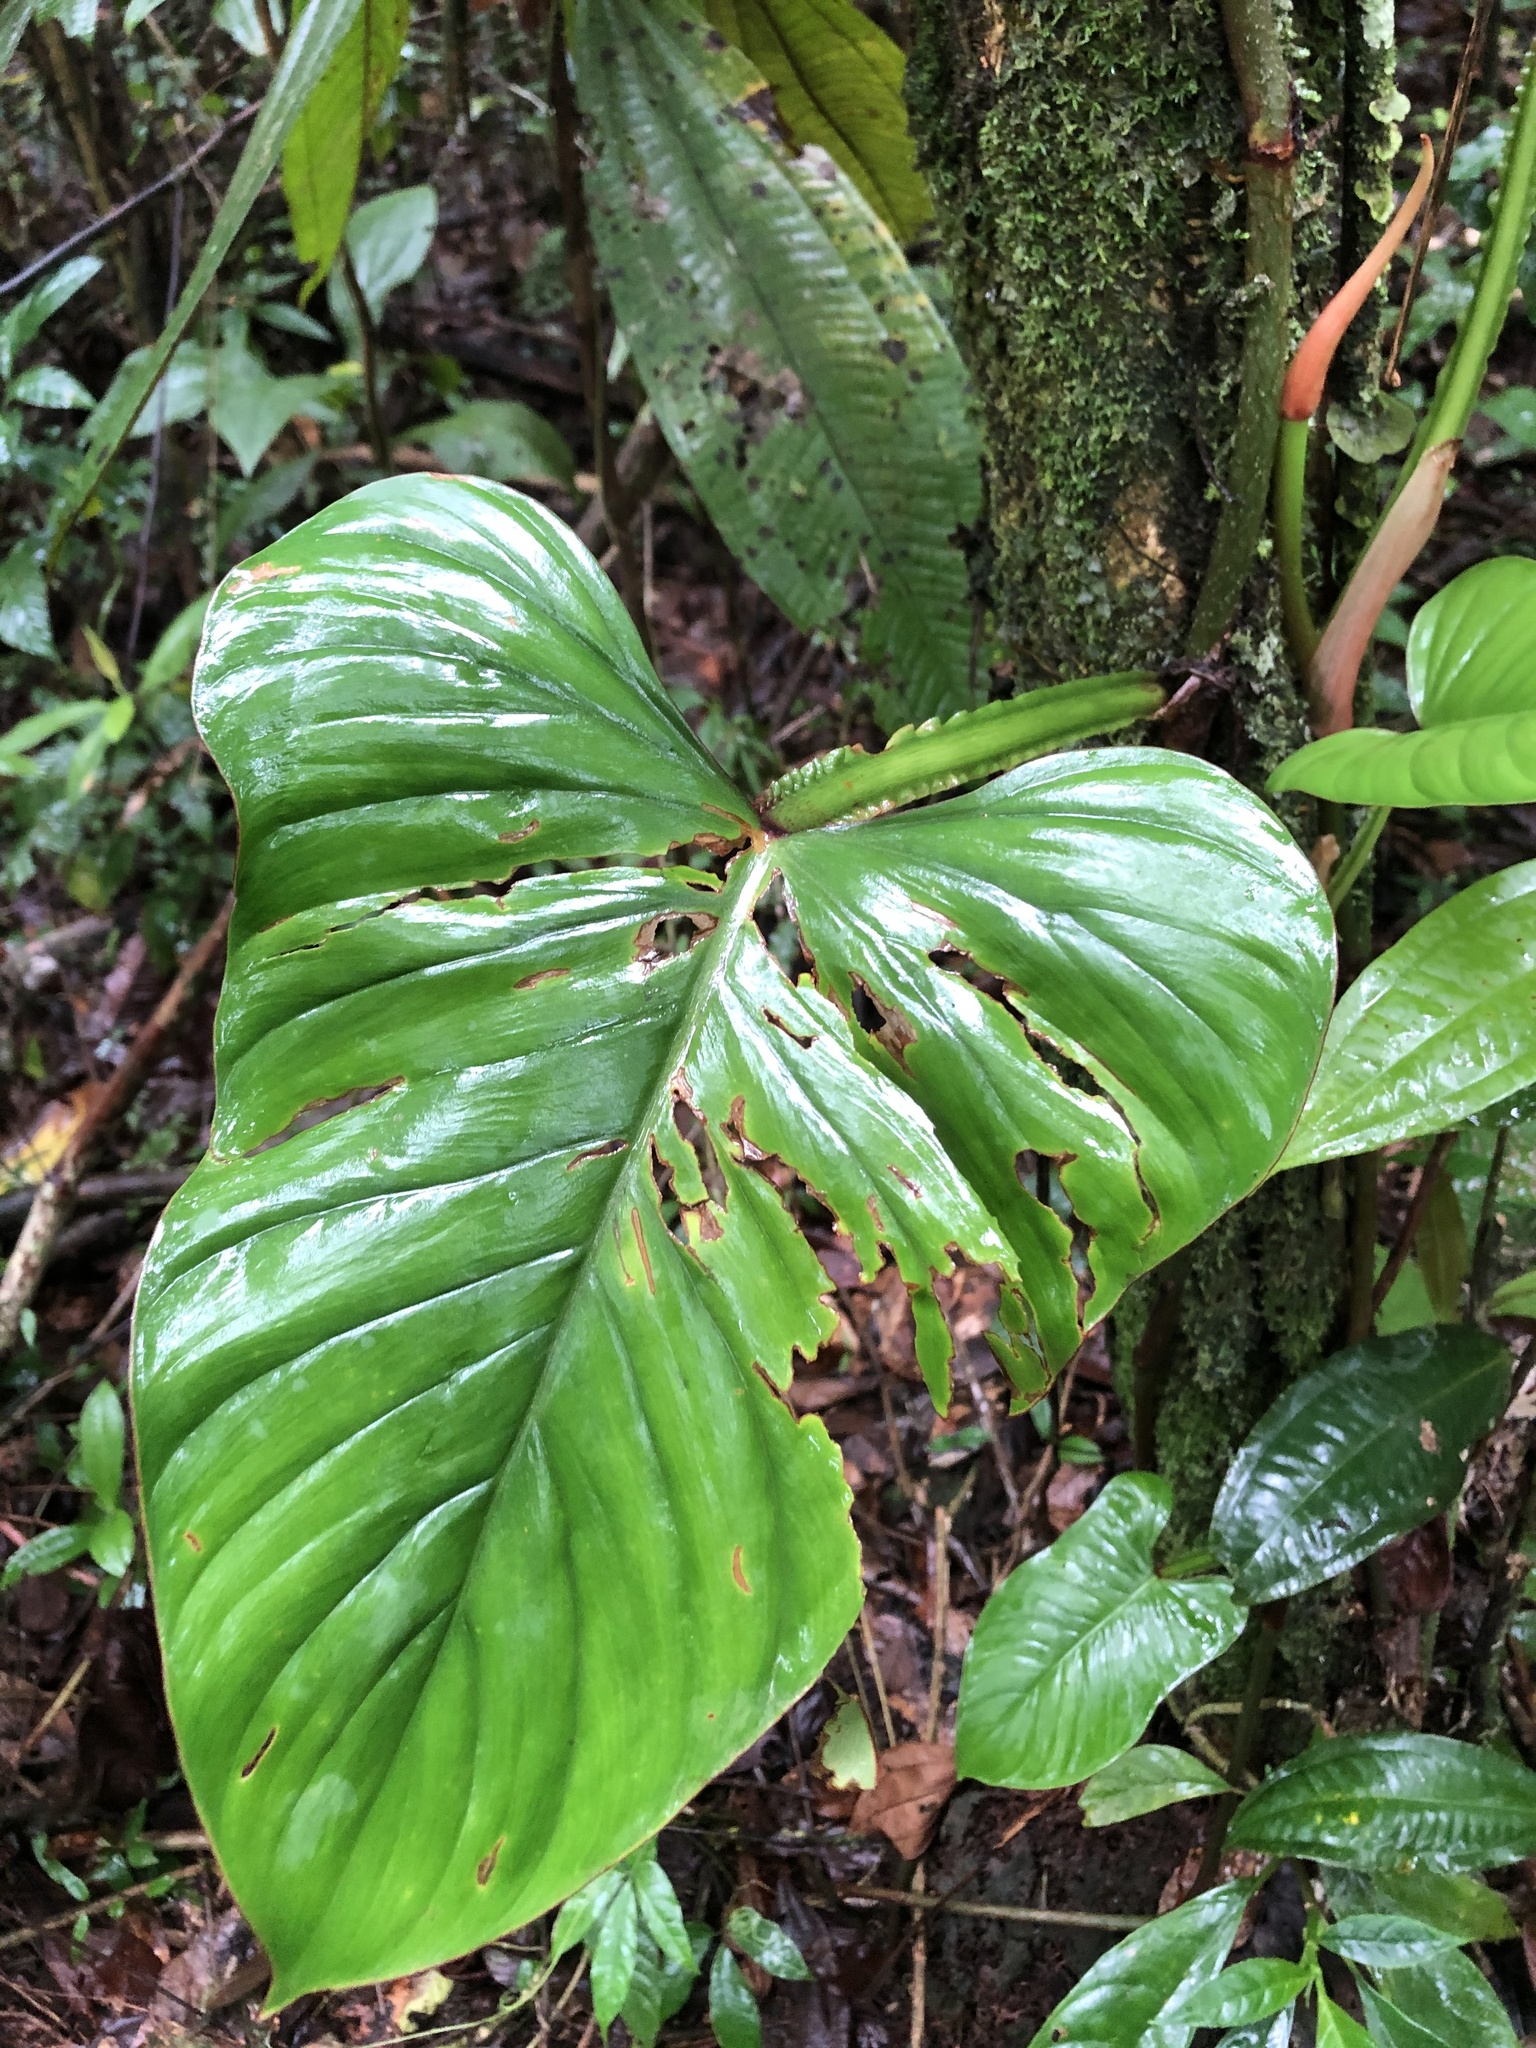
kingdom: Plantae
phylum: Tracheophyta
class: Liliopsida
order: Alismatales
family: Araceae
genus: Philodendron
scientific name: Philodendron ernestii
